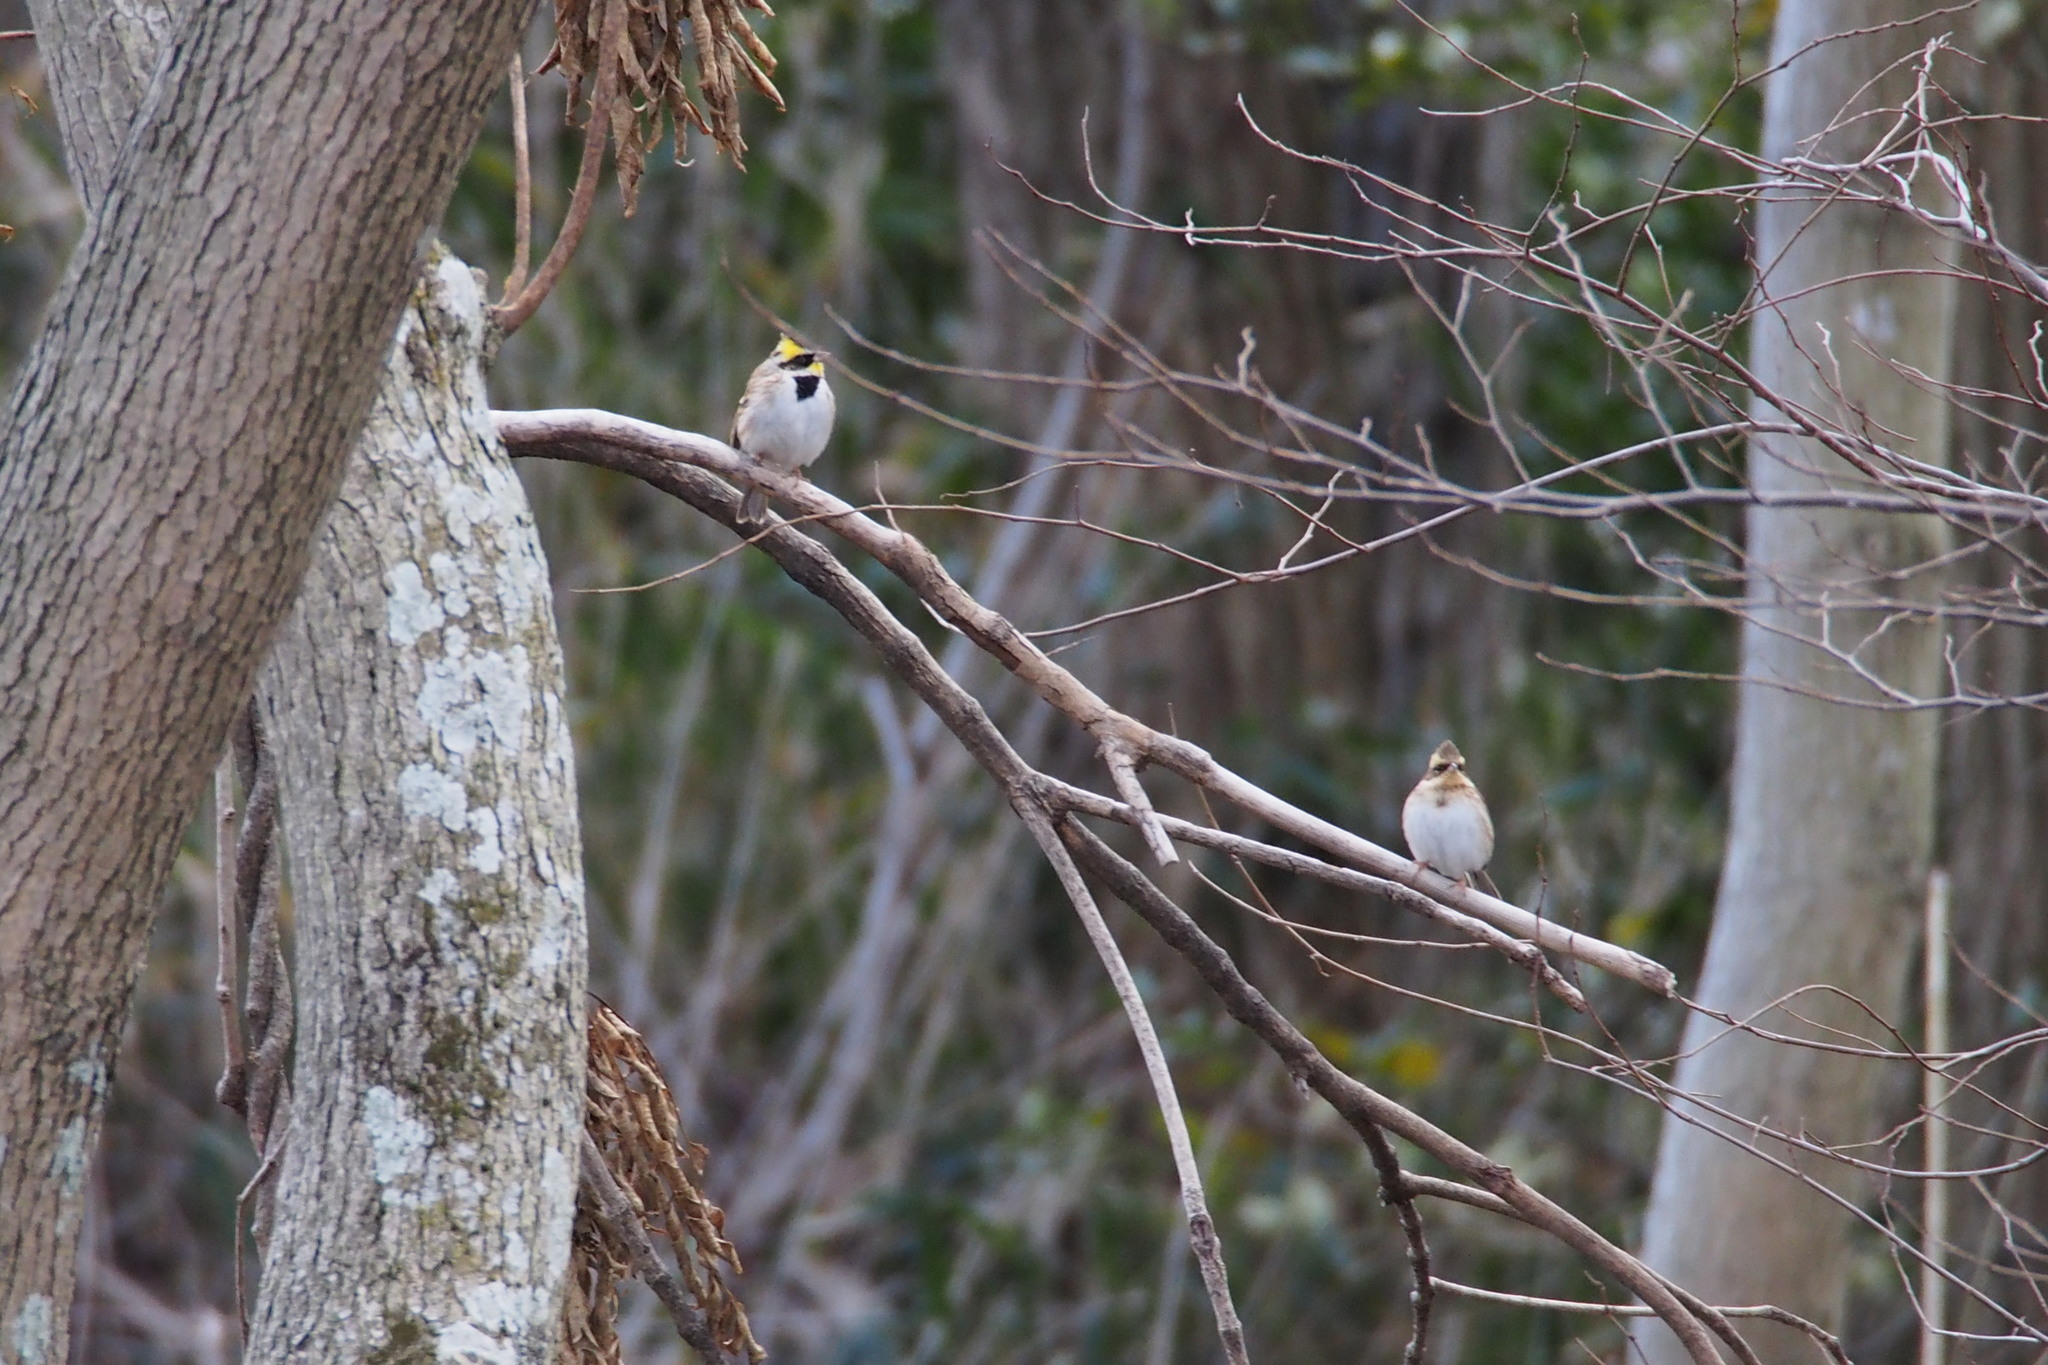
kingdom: Animalia
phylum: Chordata
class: Aves
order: Passeriformes
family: Emberizidae
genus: Emberiza
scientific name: Emberiza elegans
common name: Yellow-throated bunting
